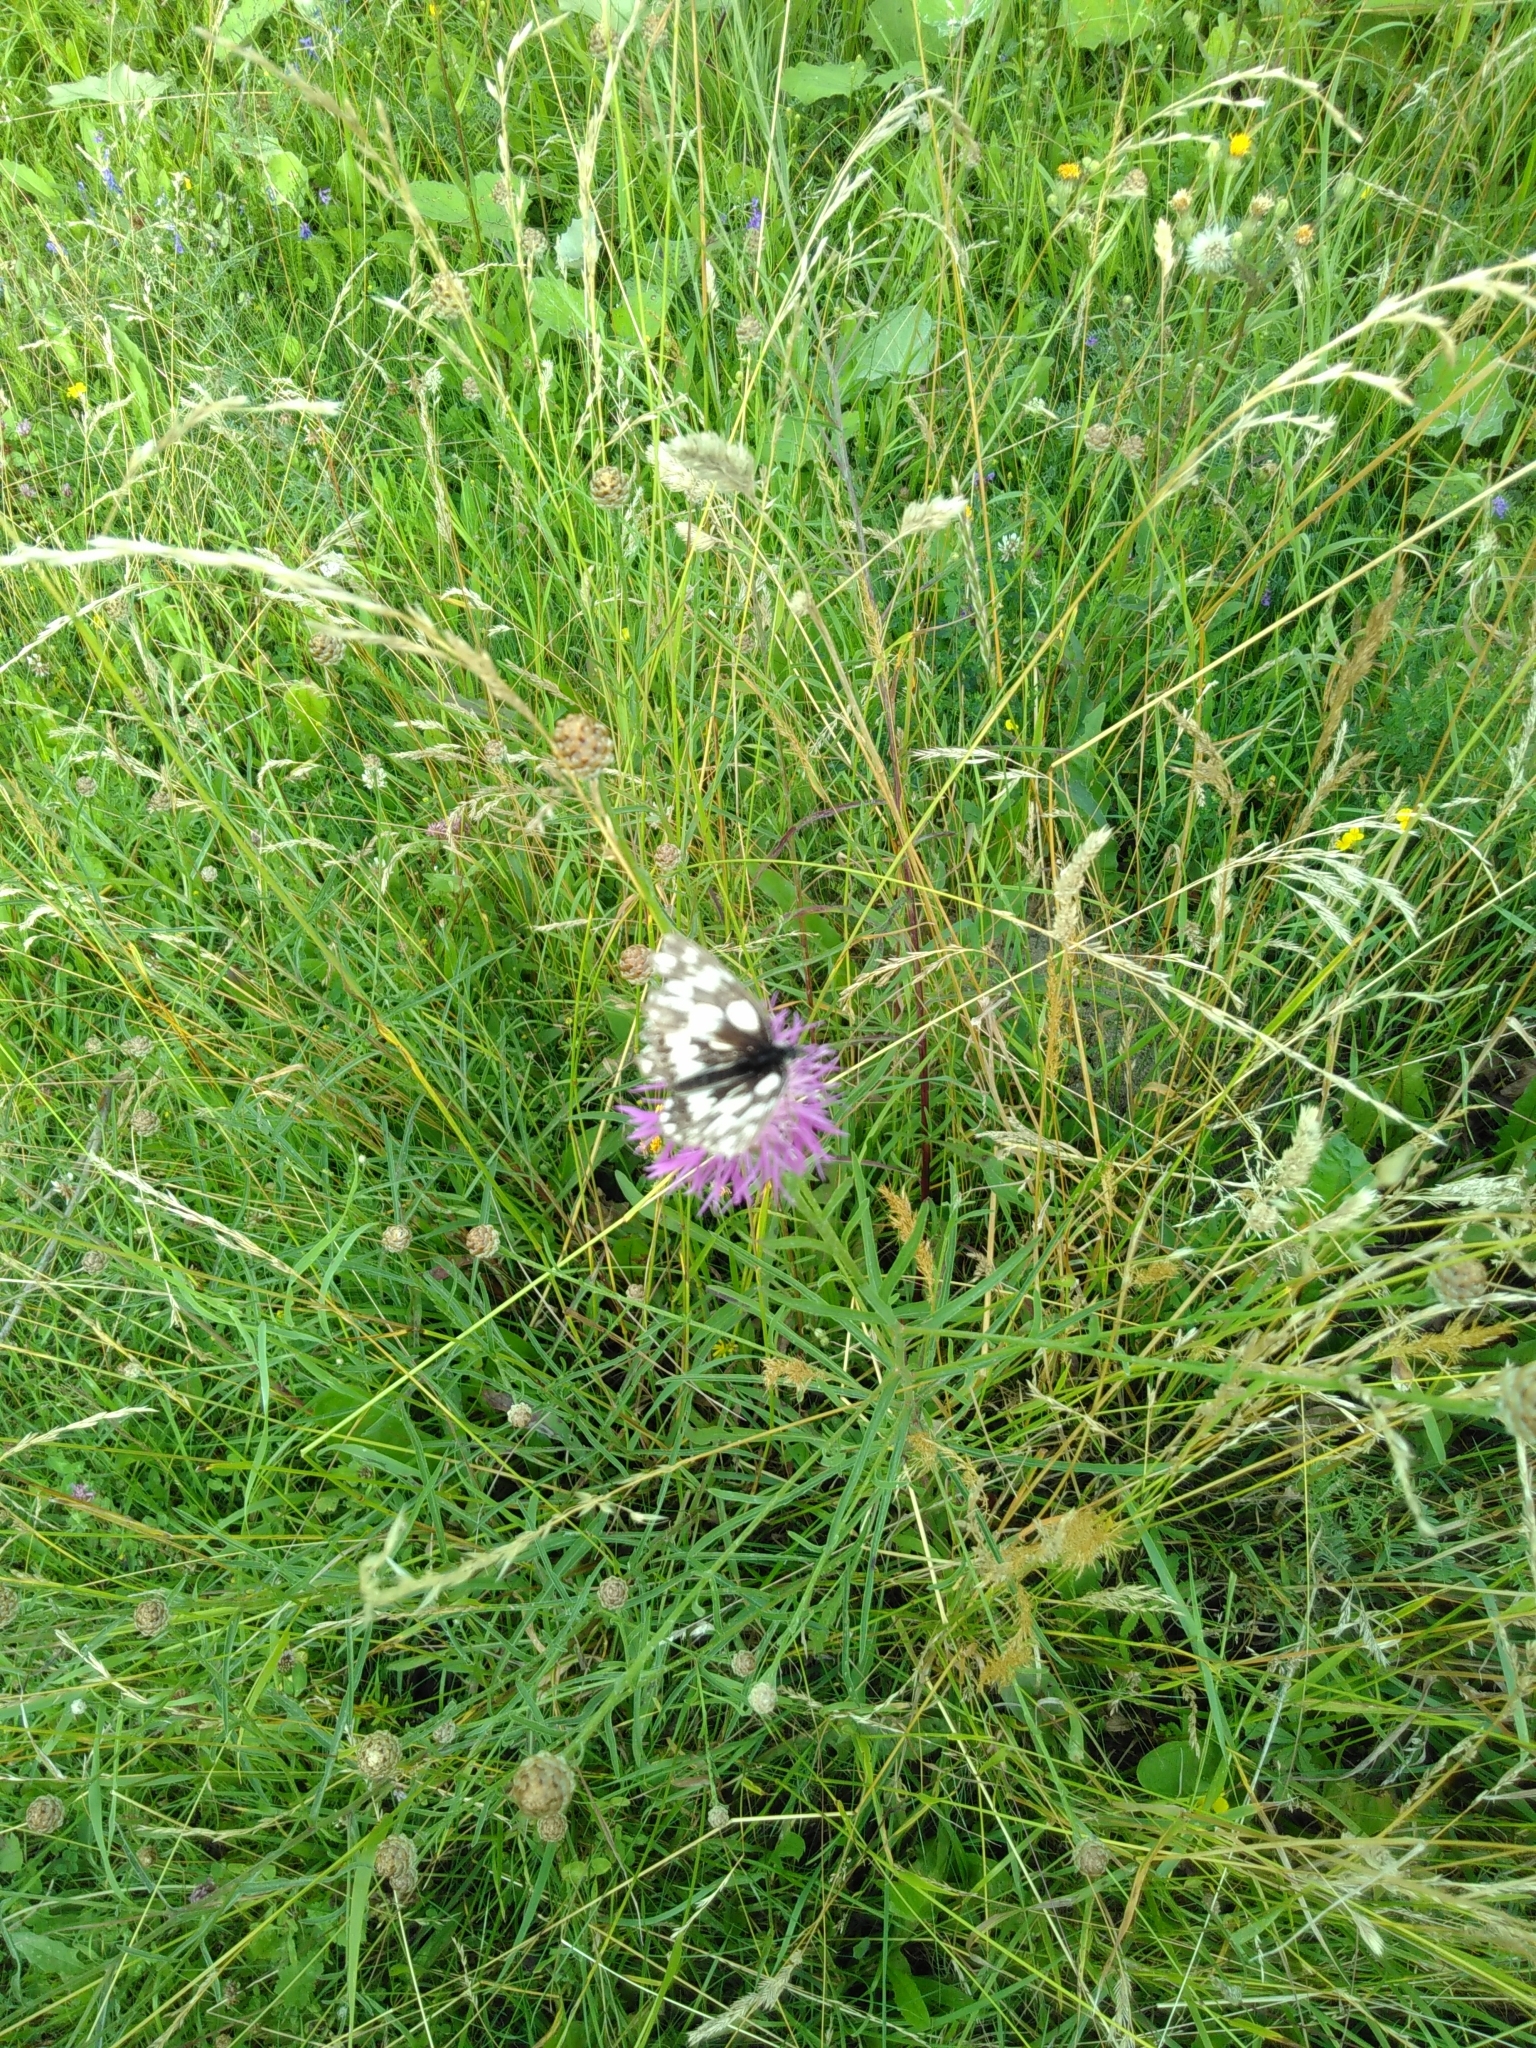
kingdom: Animalia
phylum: Arthropoda
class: Insecta
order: Lepidoptera
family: Nymphalidae
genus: Melanargia
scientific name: Melanargia galathea
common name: Marbled white
